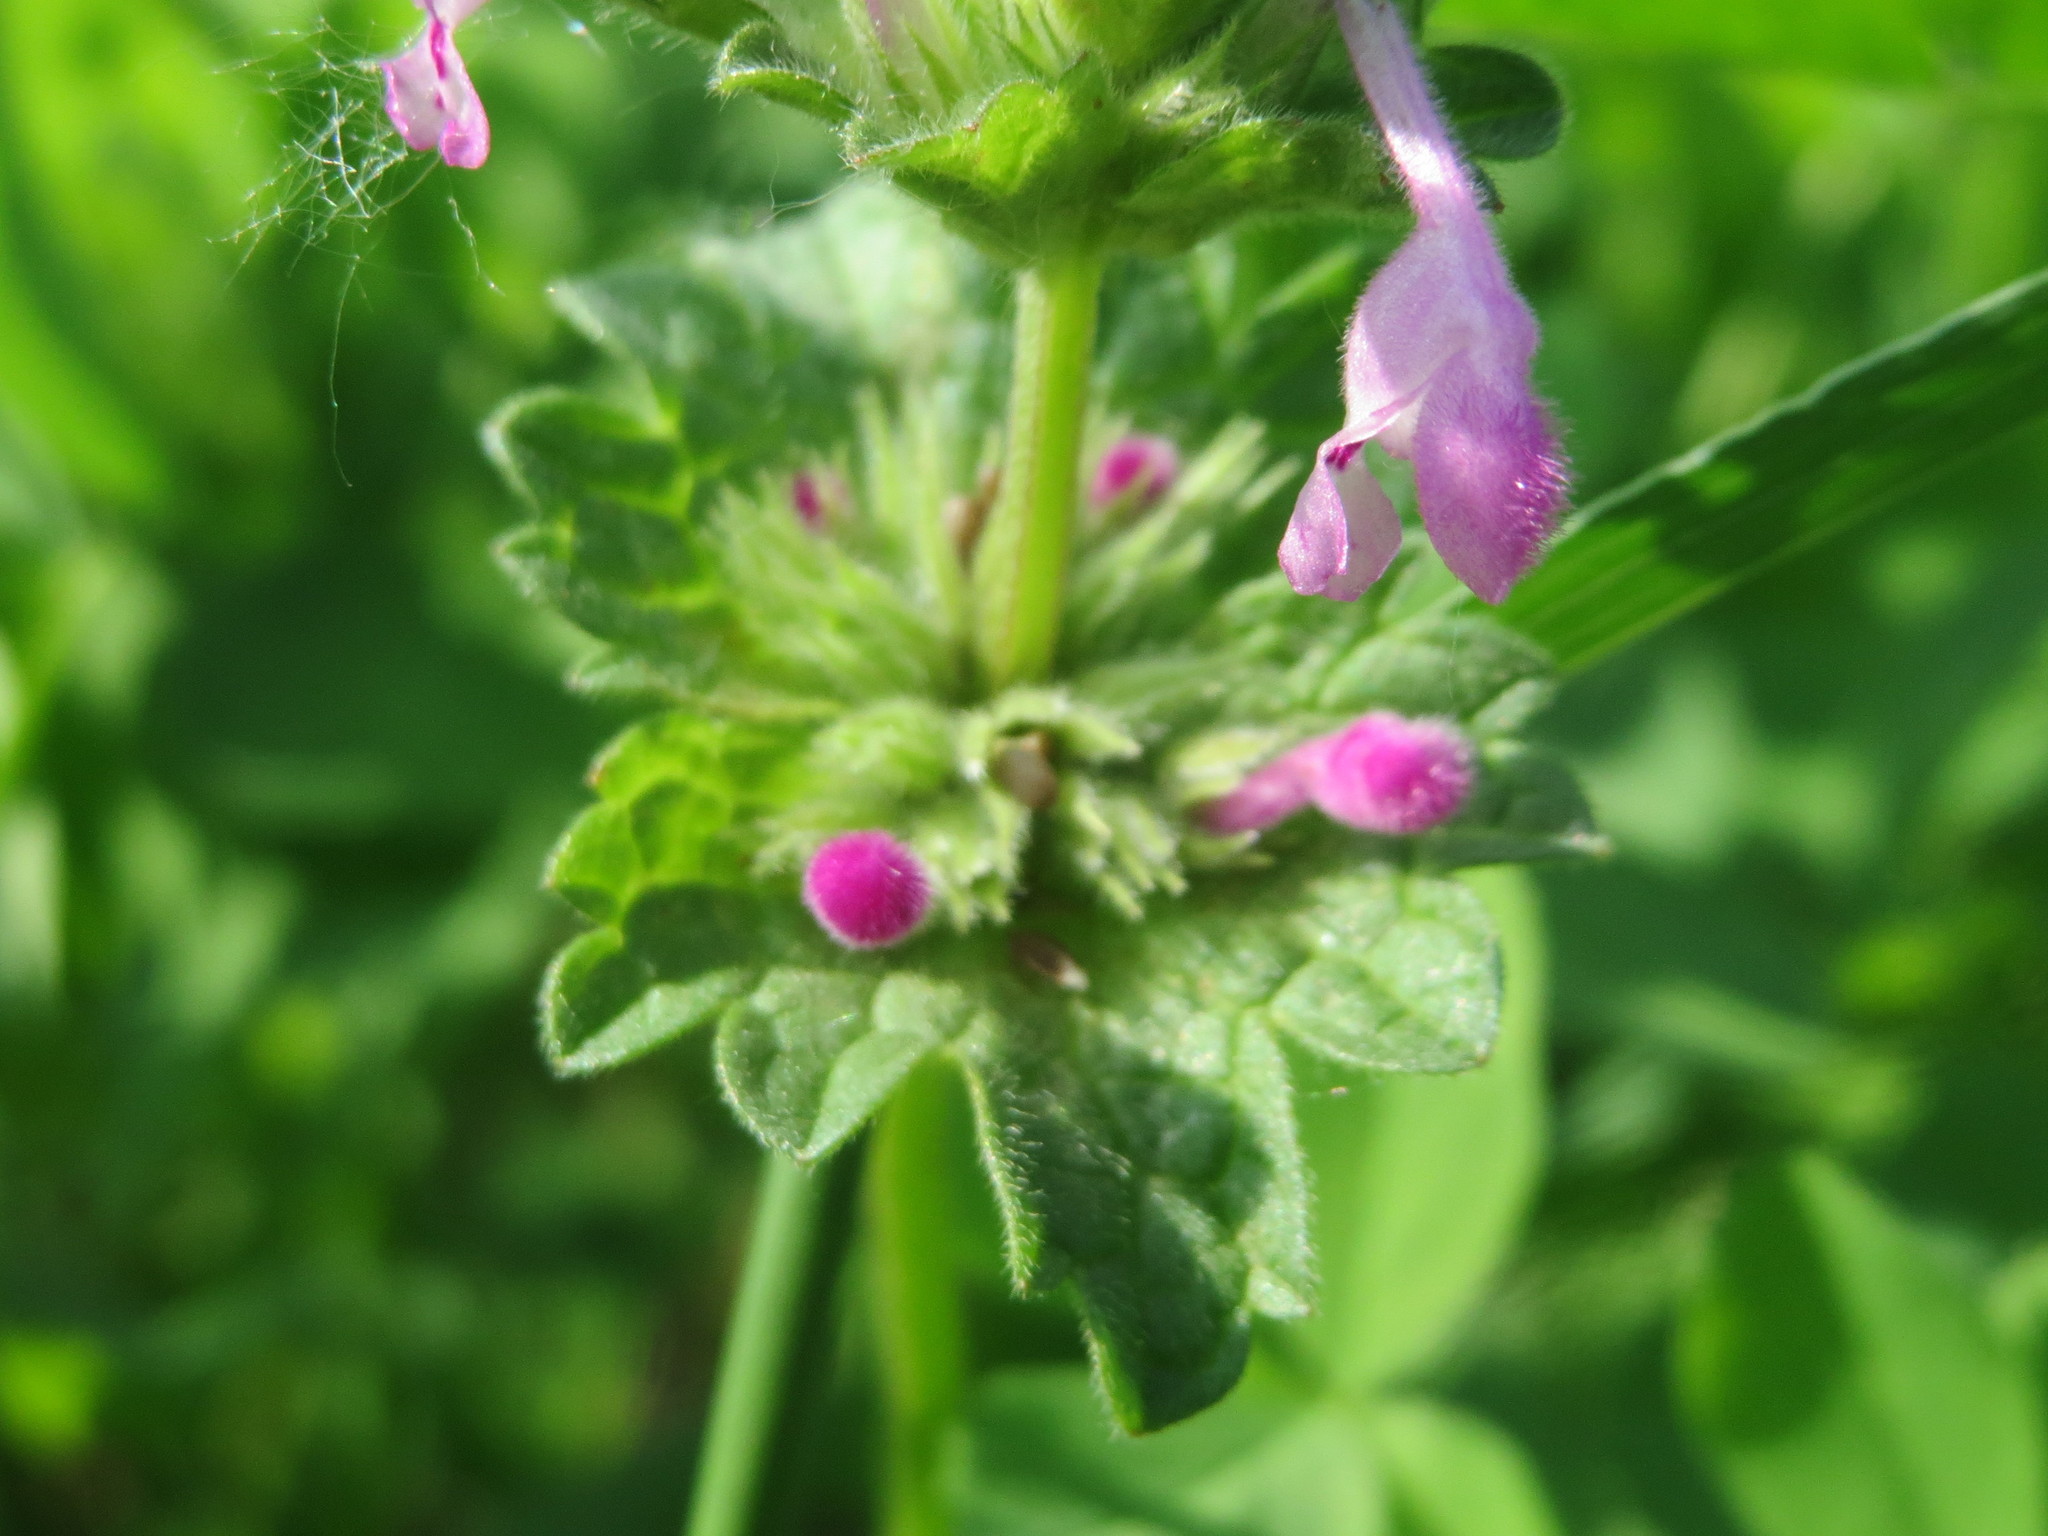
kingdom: Plantae
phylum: Tracheophyta
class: Magnoliopsida
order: Lamiales
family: Lamiaceae
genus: Lamium
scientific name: Lamium amplexicaule
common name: Henbit dead-nettle
